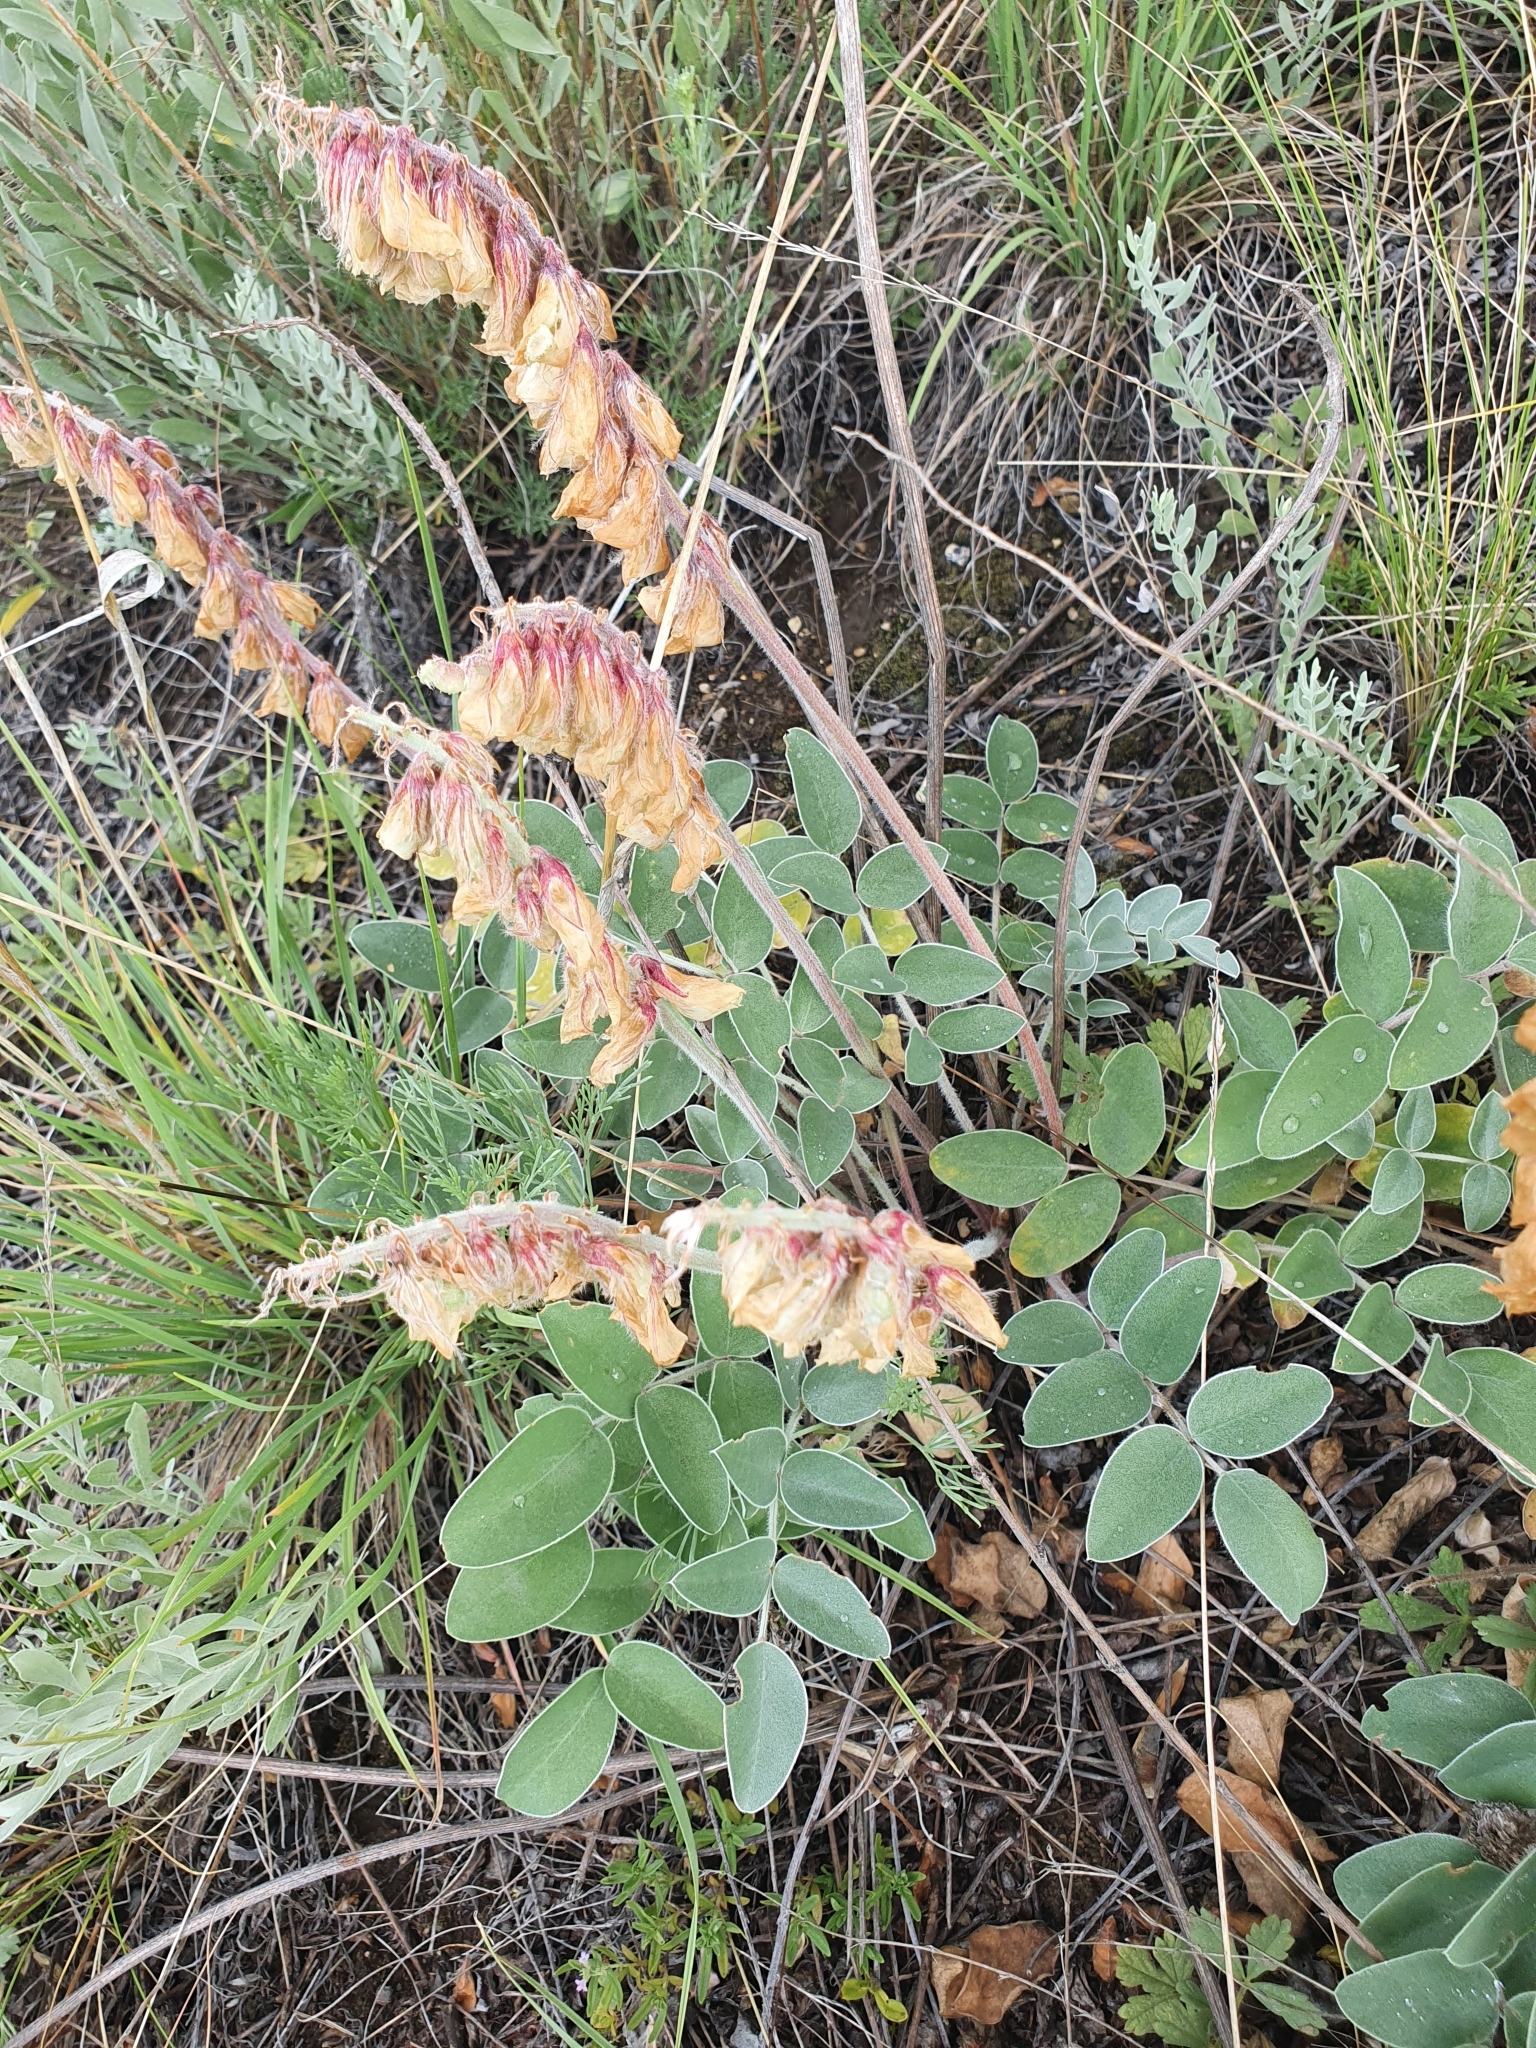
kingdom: Plantae
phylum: Tracheophyta
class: Magnoliopsida
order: Fabales
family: Fabaceae
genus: Hedysarum
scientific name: Hedysarum grandiflorum
